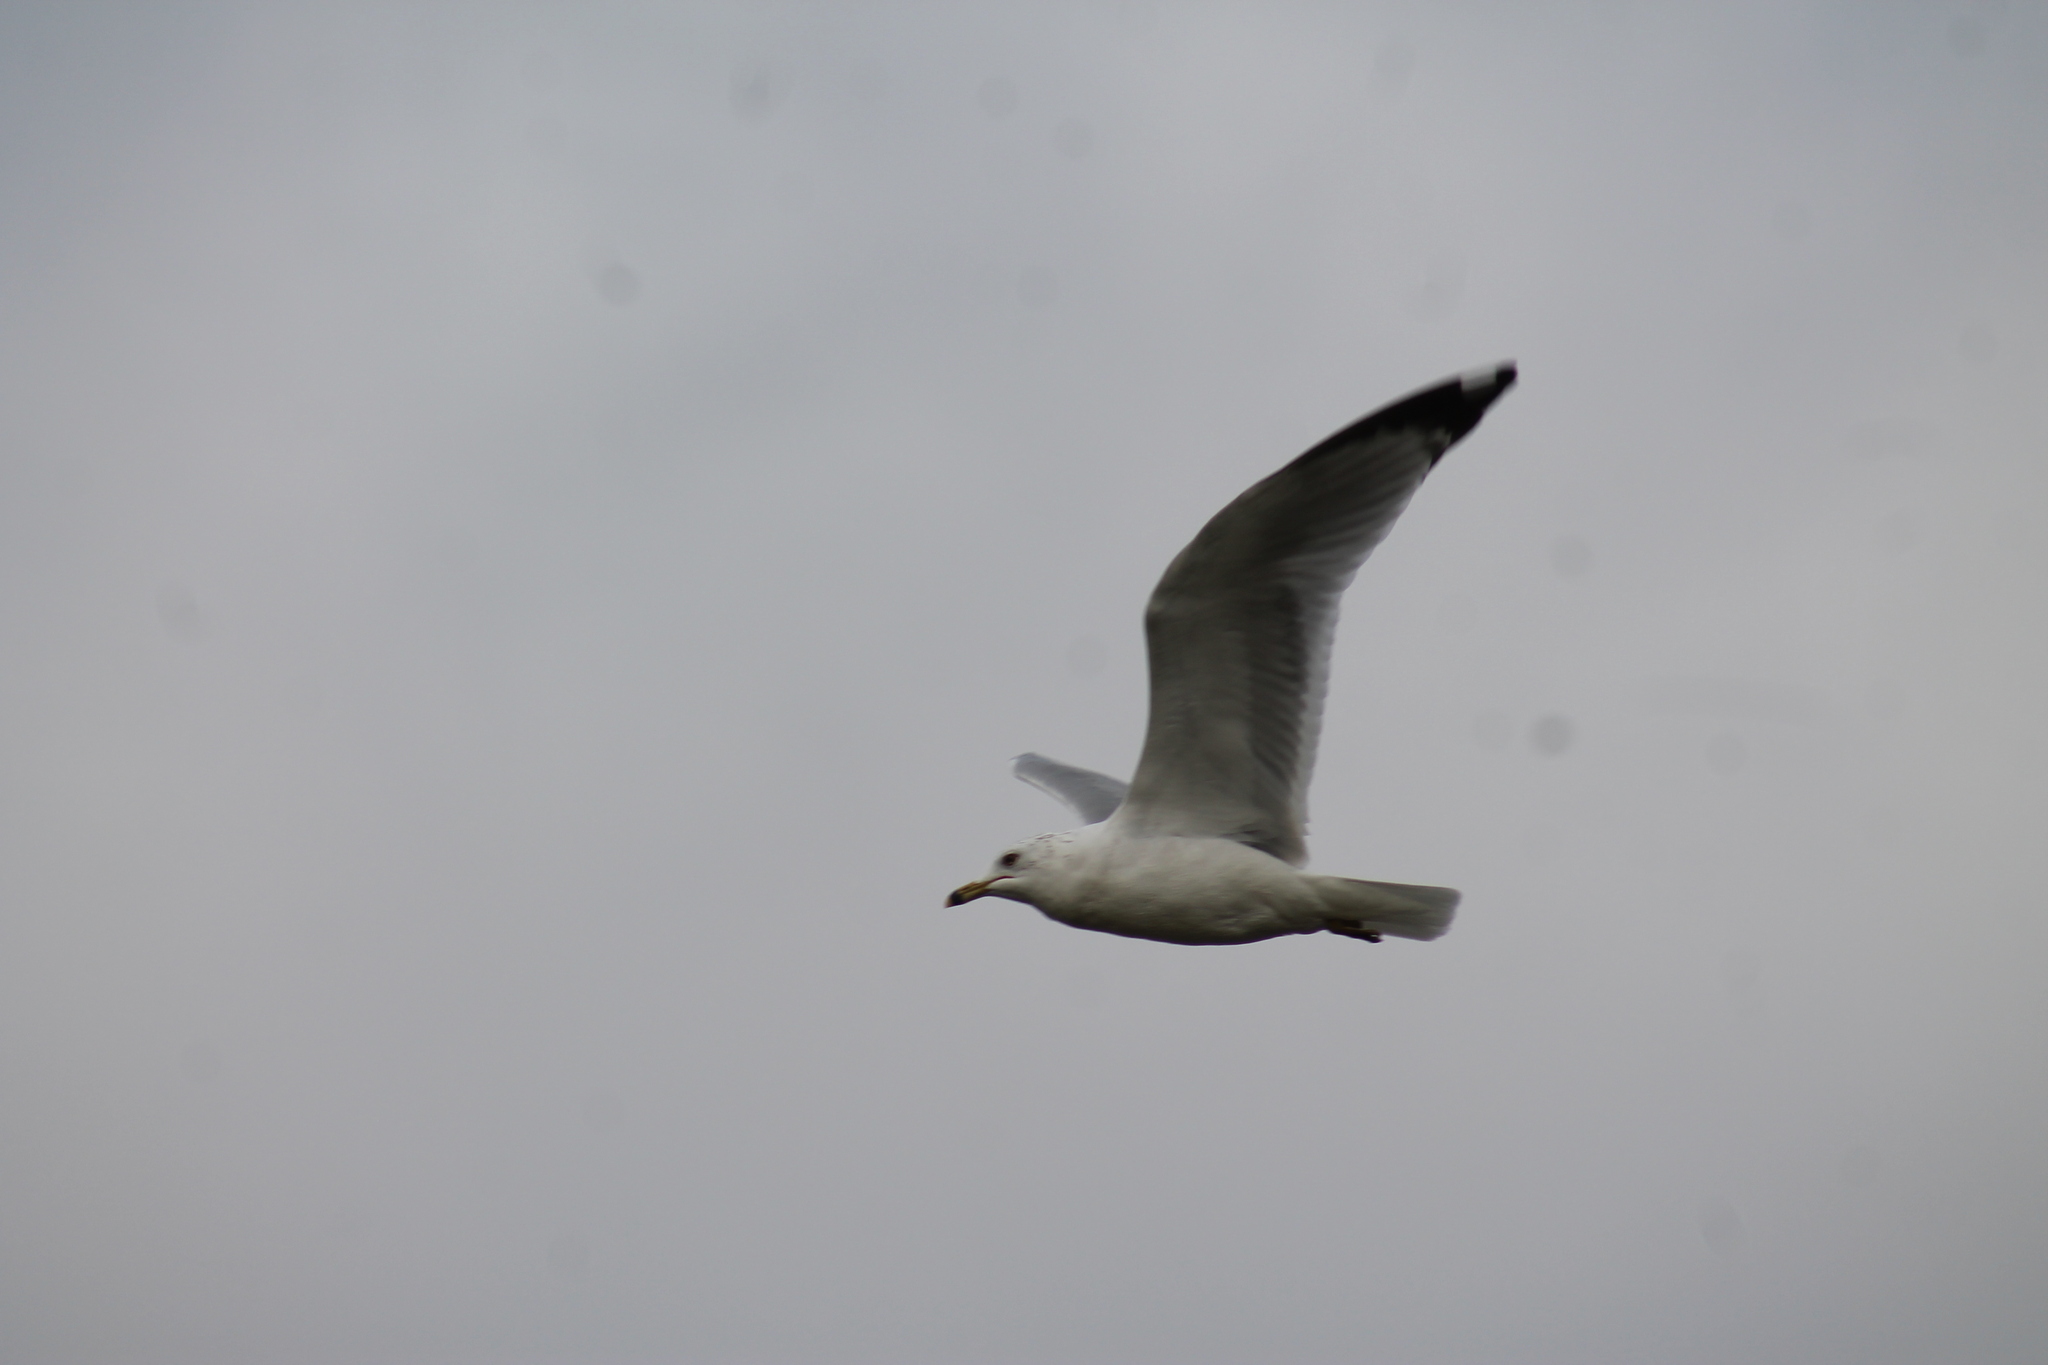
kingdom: Animalia
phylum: Chordata
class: Aves
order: Charadriiformes
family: Laridae
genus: Larus
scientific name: Larus delawarensis
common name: Ring-billed gull
